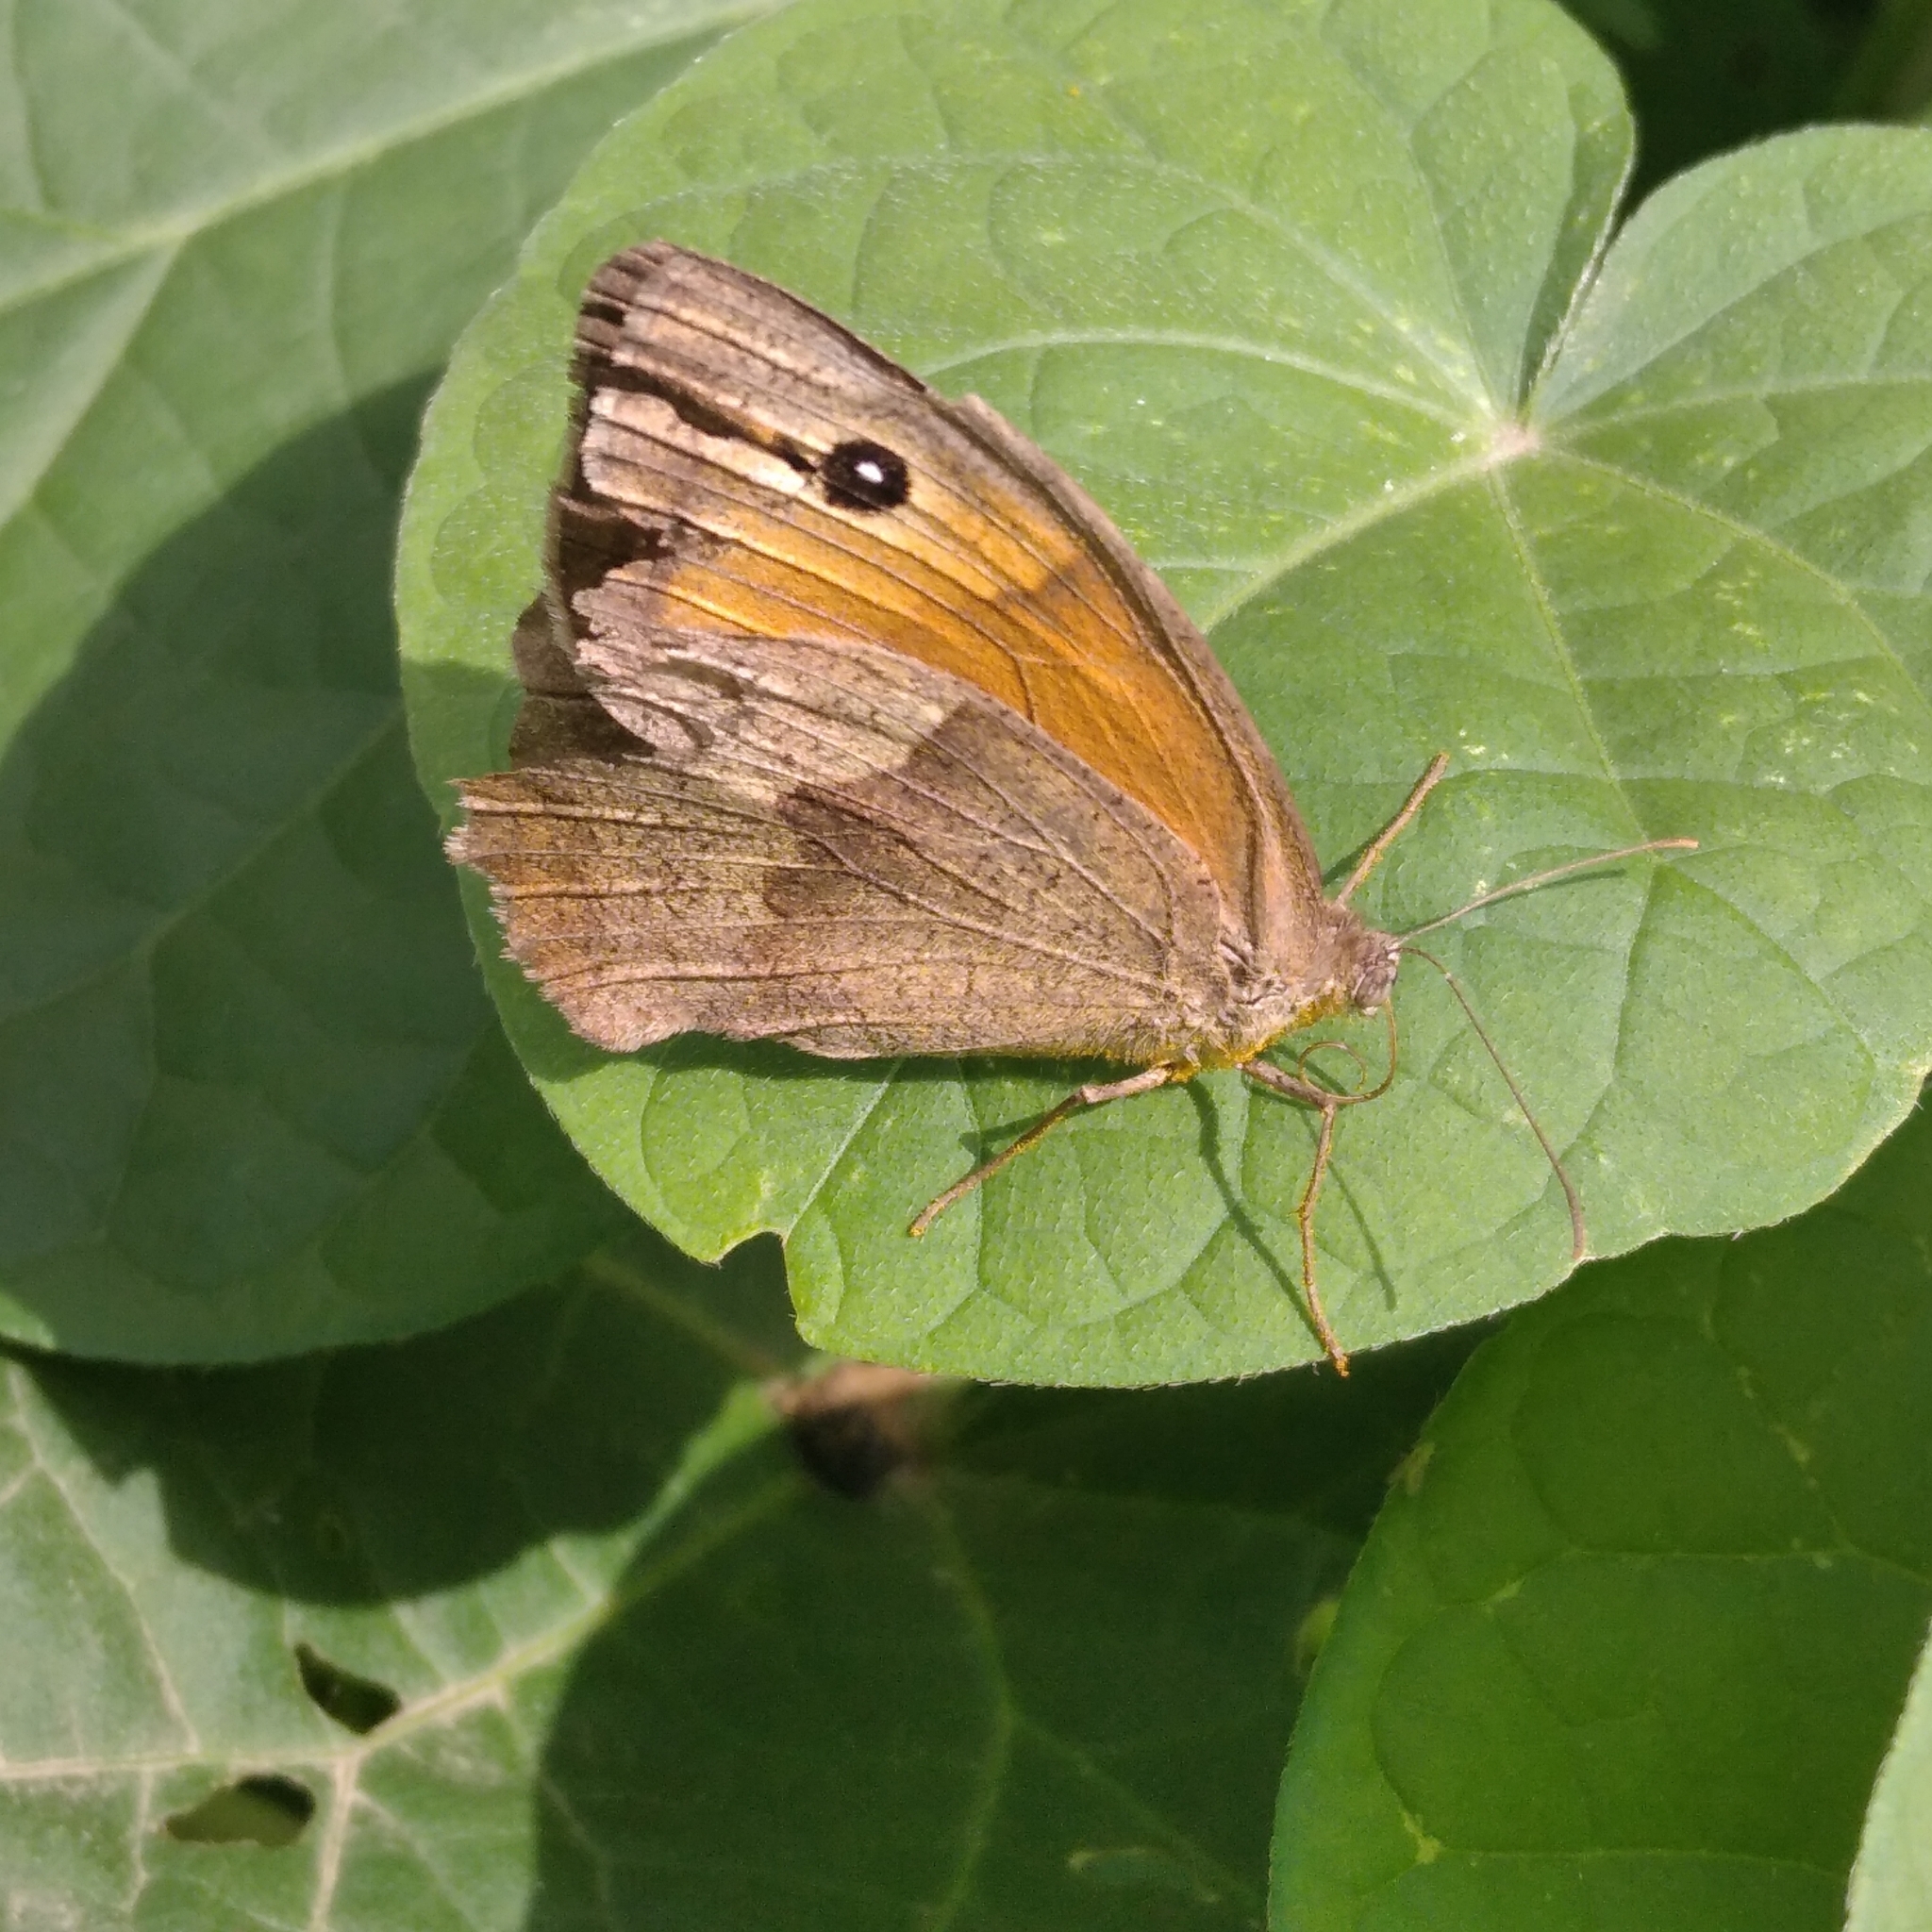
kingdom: Animalia
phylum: Arthropoda
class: Insecta
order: Lepidoptera
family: Nymphalidae
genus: Maniola
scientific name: Maniola jurtina
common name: Meadow brown
